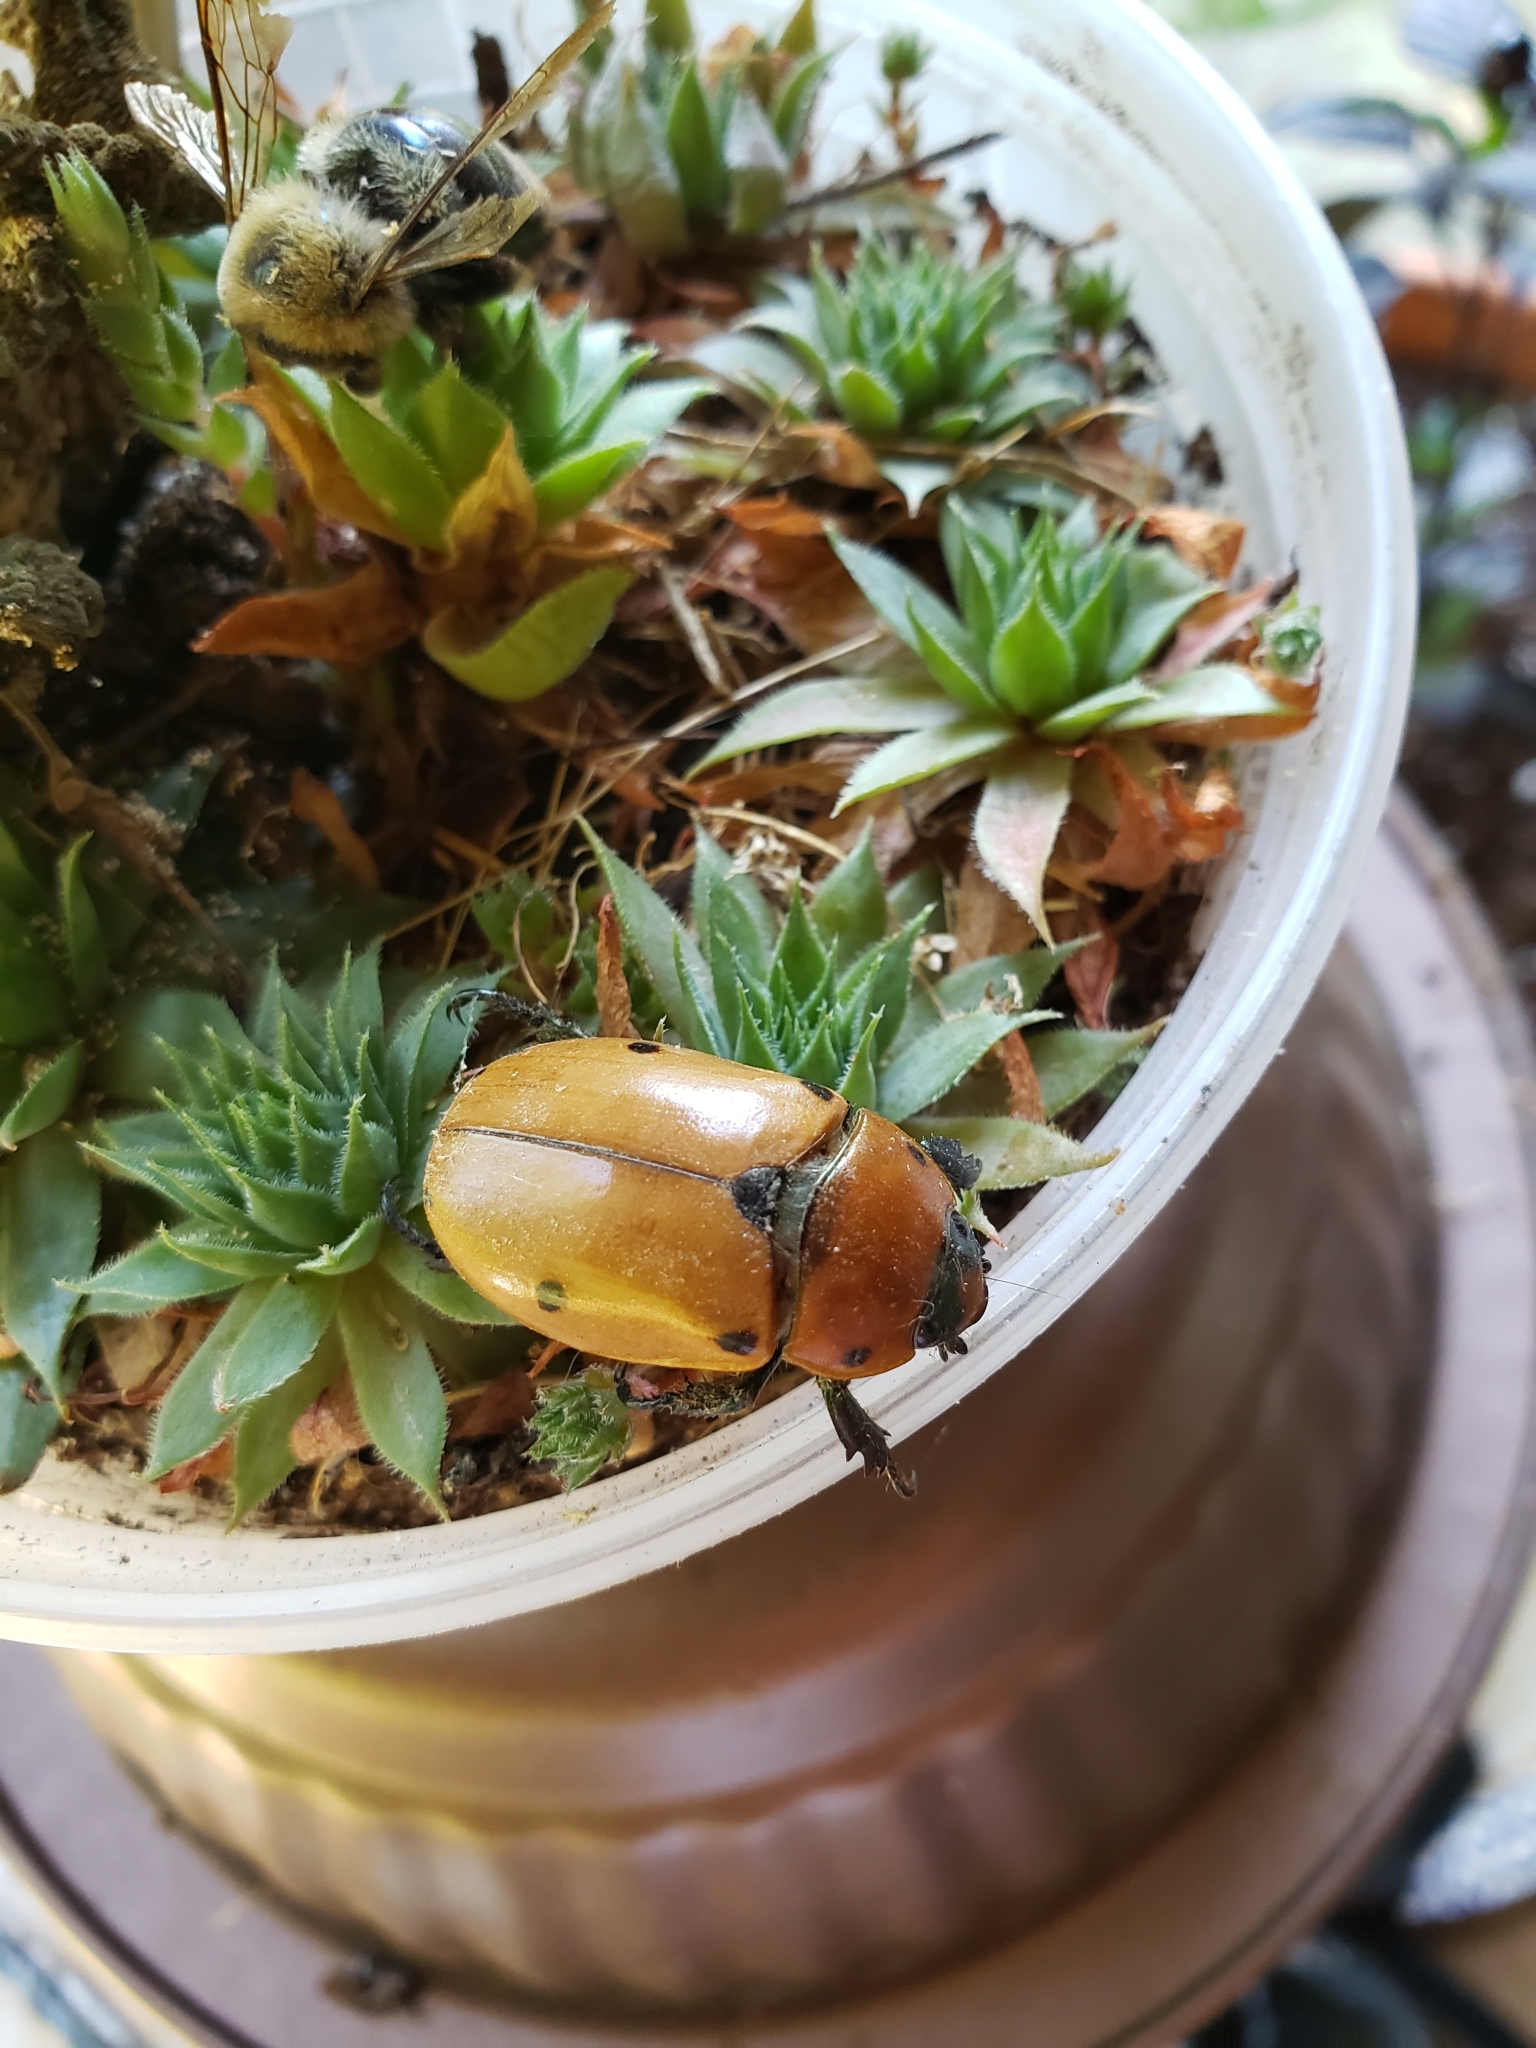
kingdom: Animalia
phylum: Arthropoda
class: Insecta
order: Coleoptera
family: Scarabaeidae
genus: Pelidnota
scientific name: Pelidnota punctata
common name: Grapevine beetle
